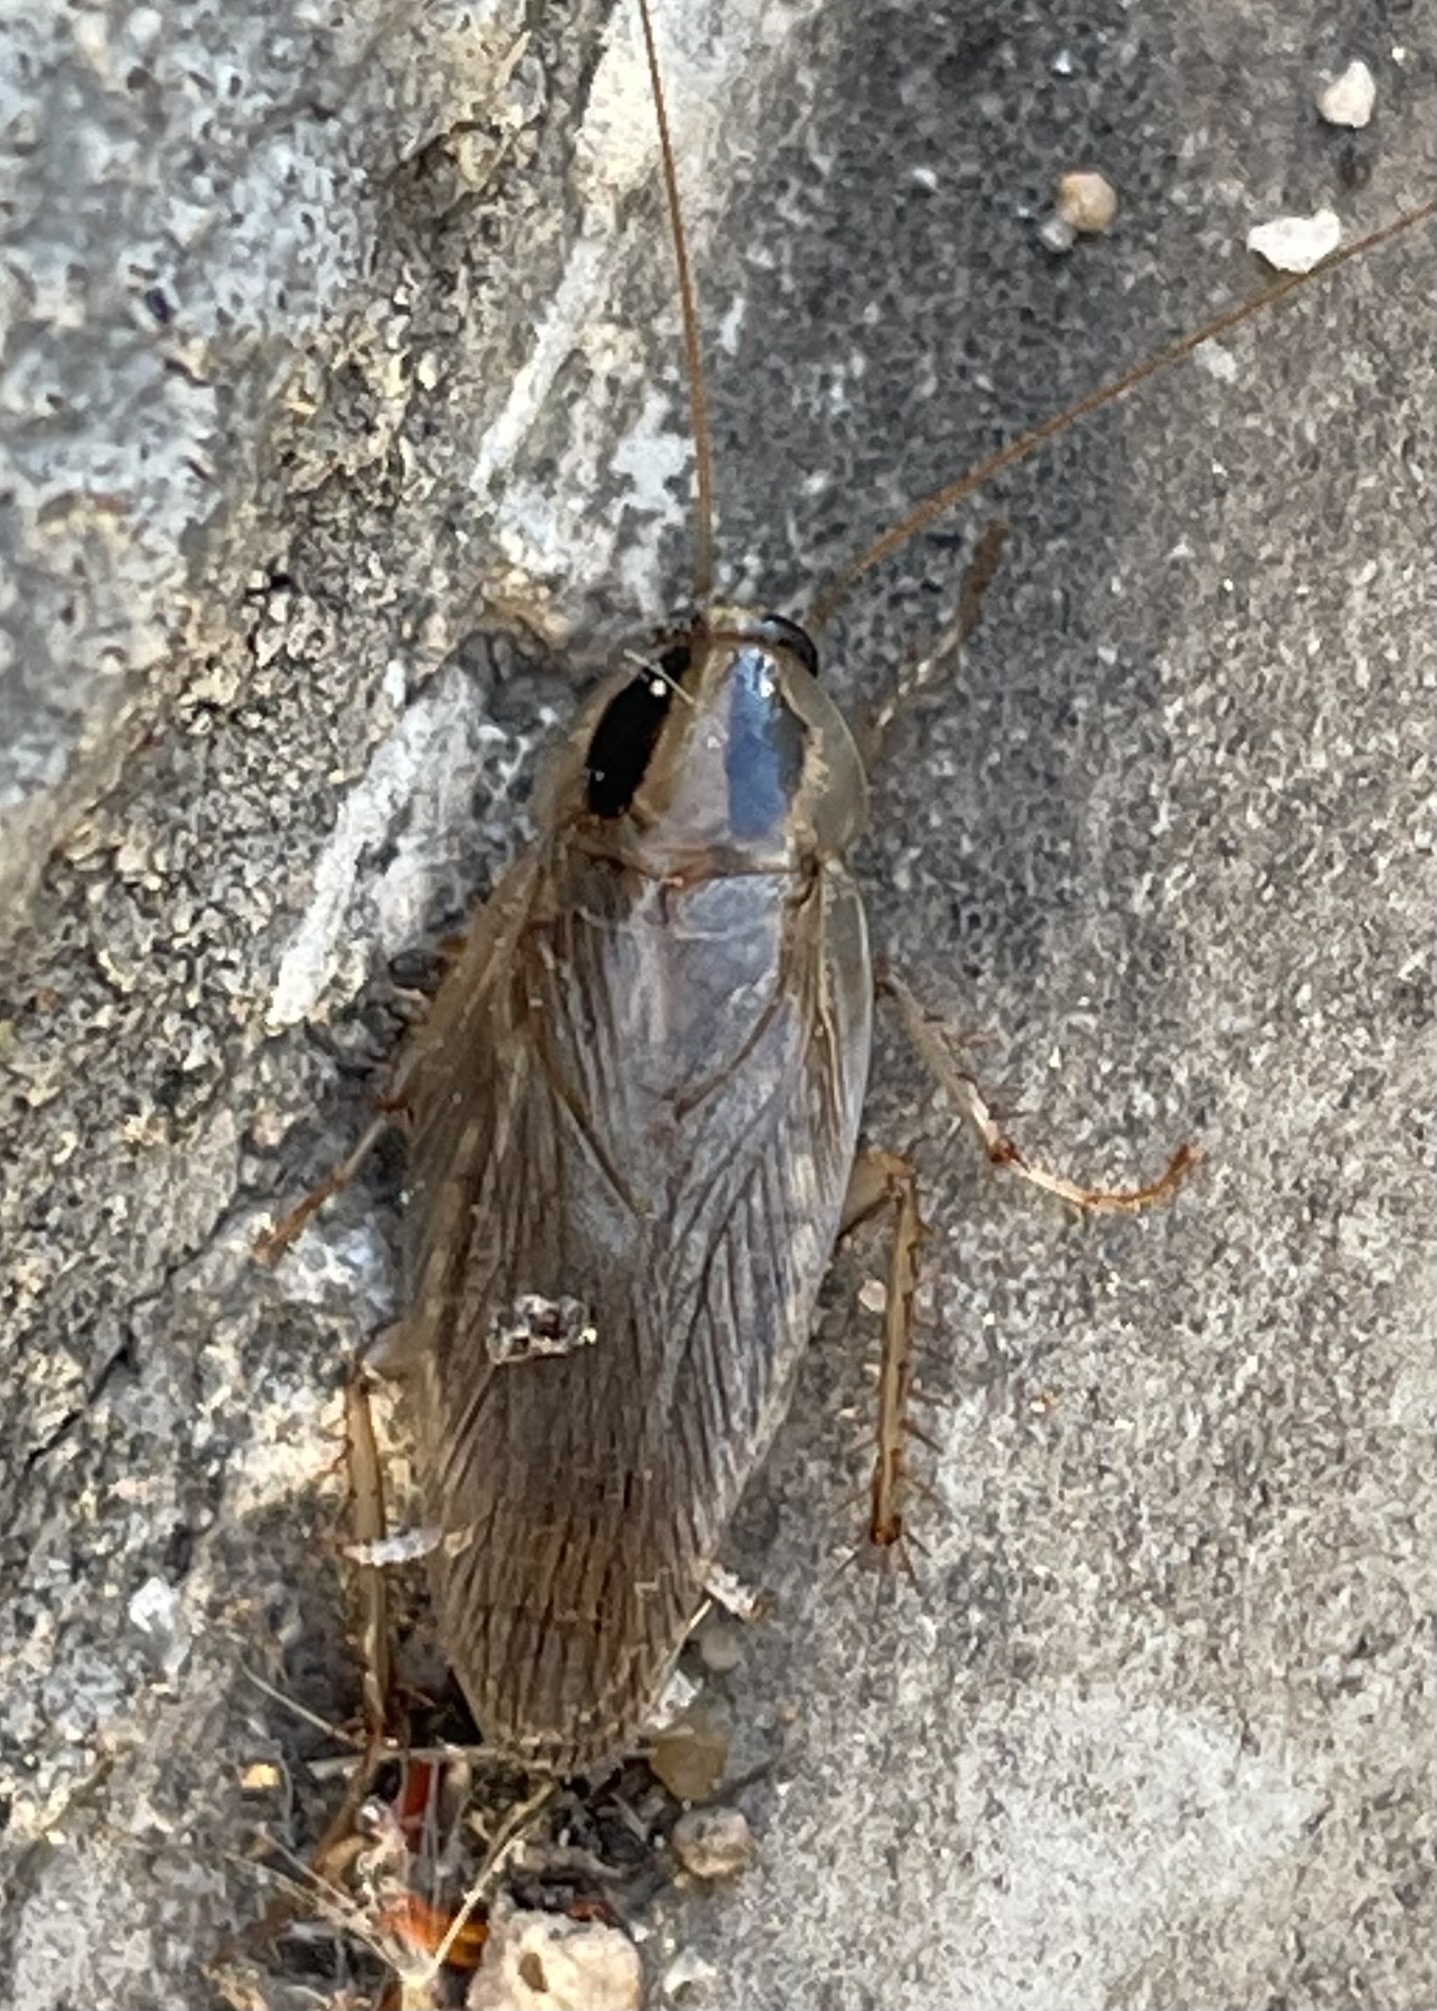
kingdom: Animalia
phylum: Arthropoda
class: Insecta
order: Blattodea
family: Ectobiidae
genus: Blattella
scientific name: Blattella vaga
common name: Field cockroach
